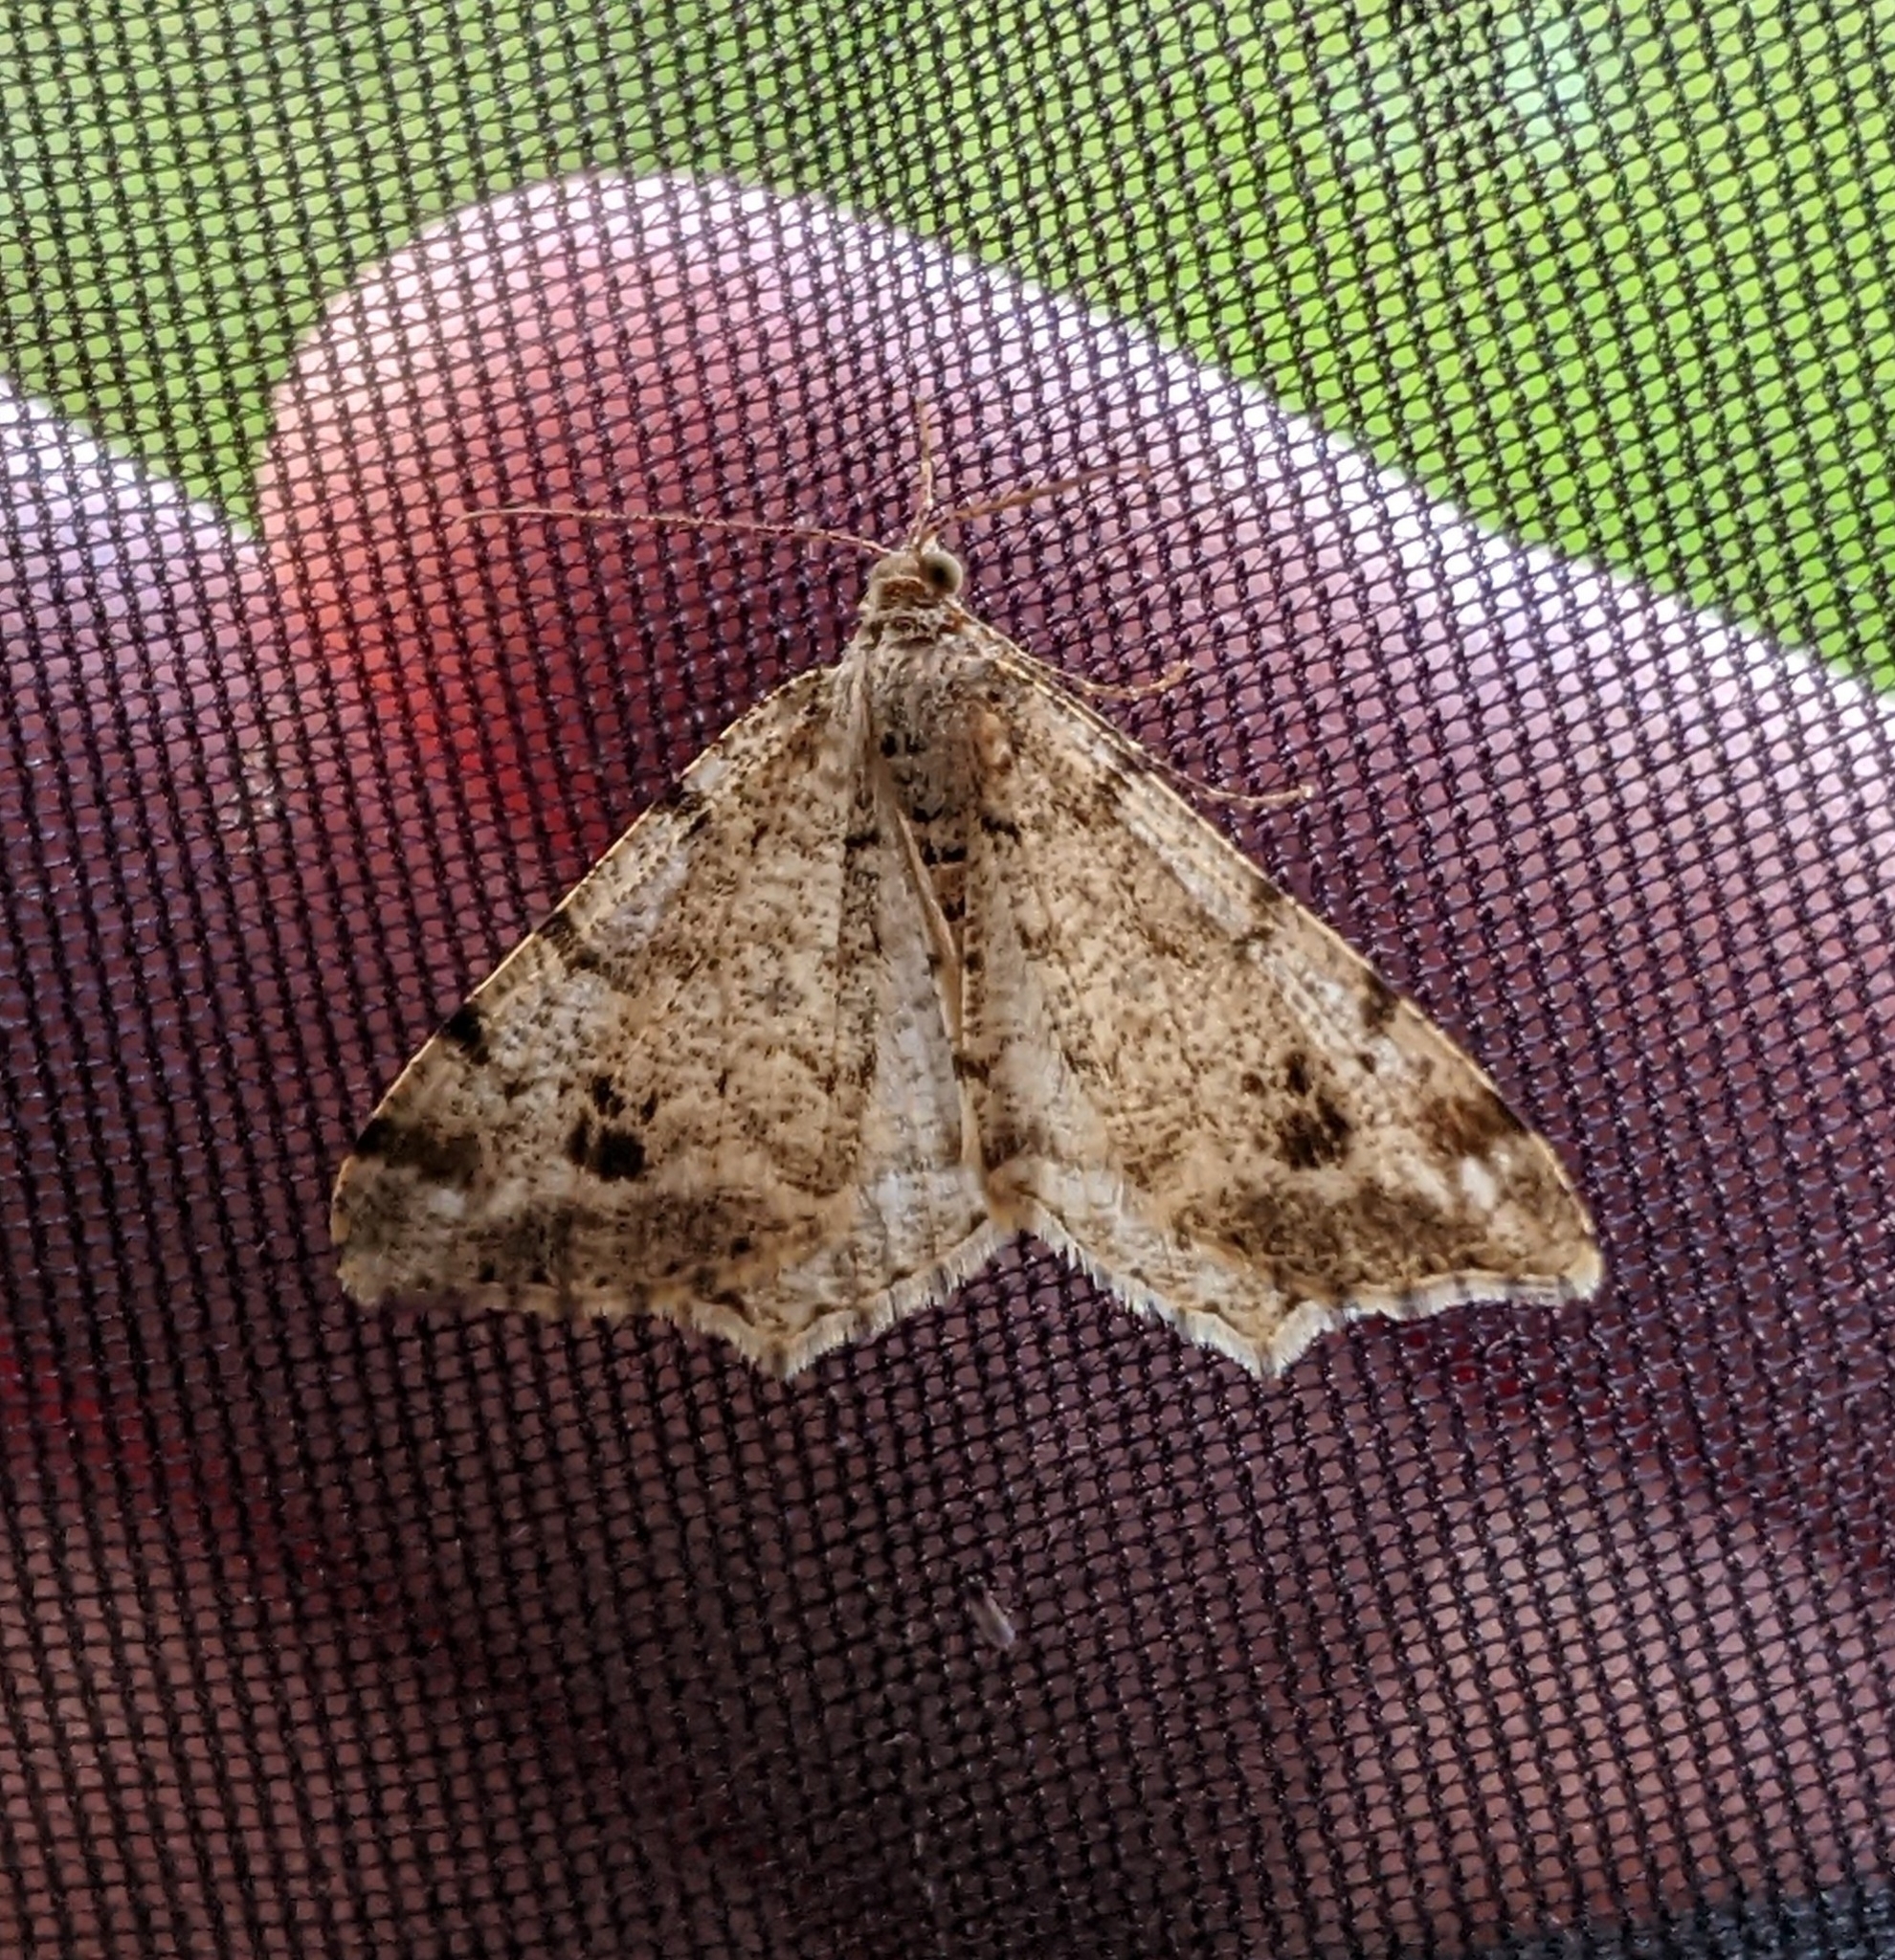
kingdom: Animalia
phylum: Arthropoda
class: Insecta
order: Lepidoptera
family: Geometridae
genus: Macaria
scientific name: Macaria signaria
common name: Dusky peacock
